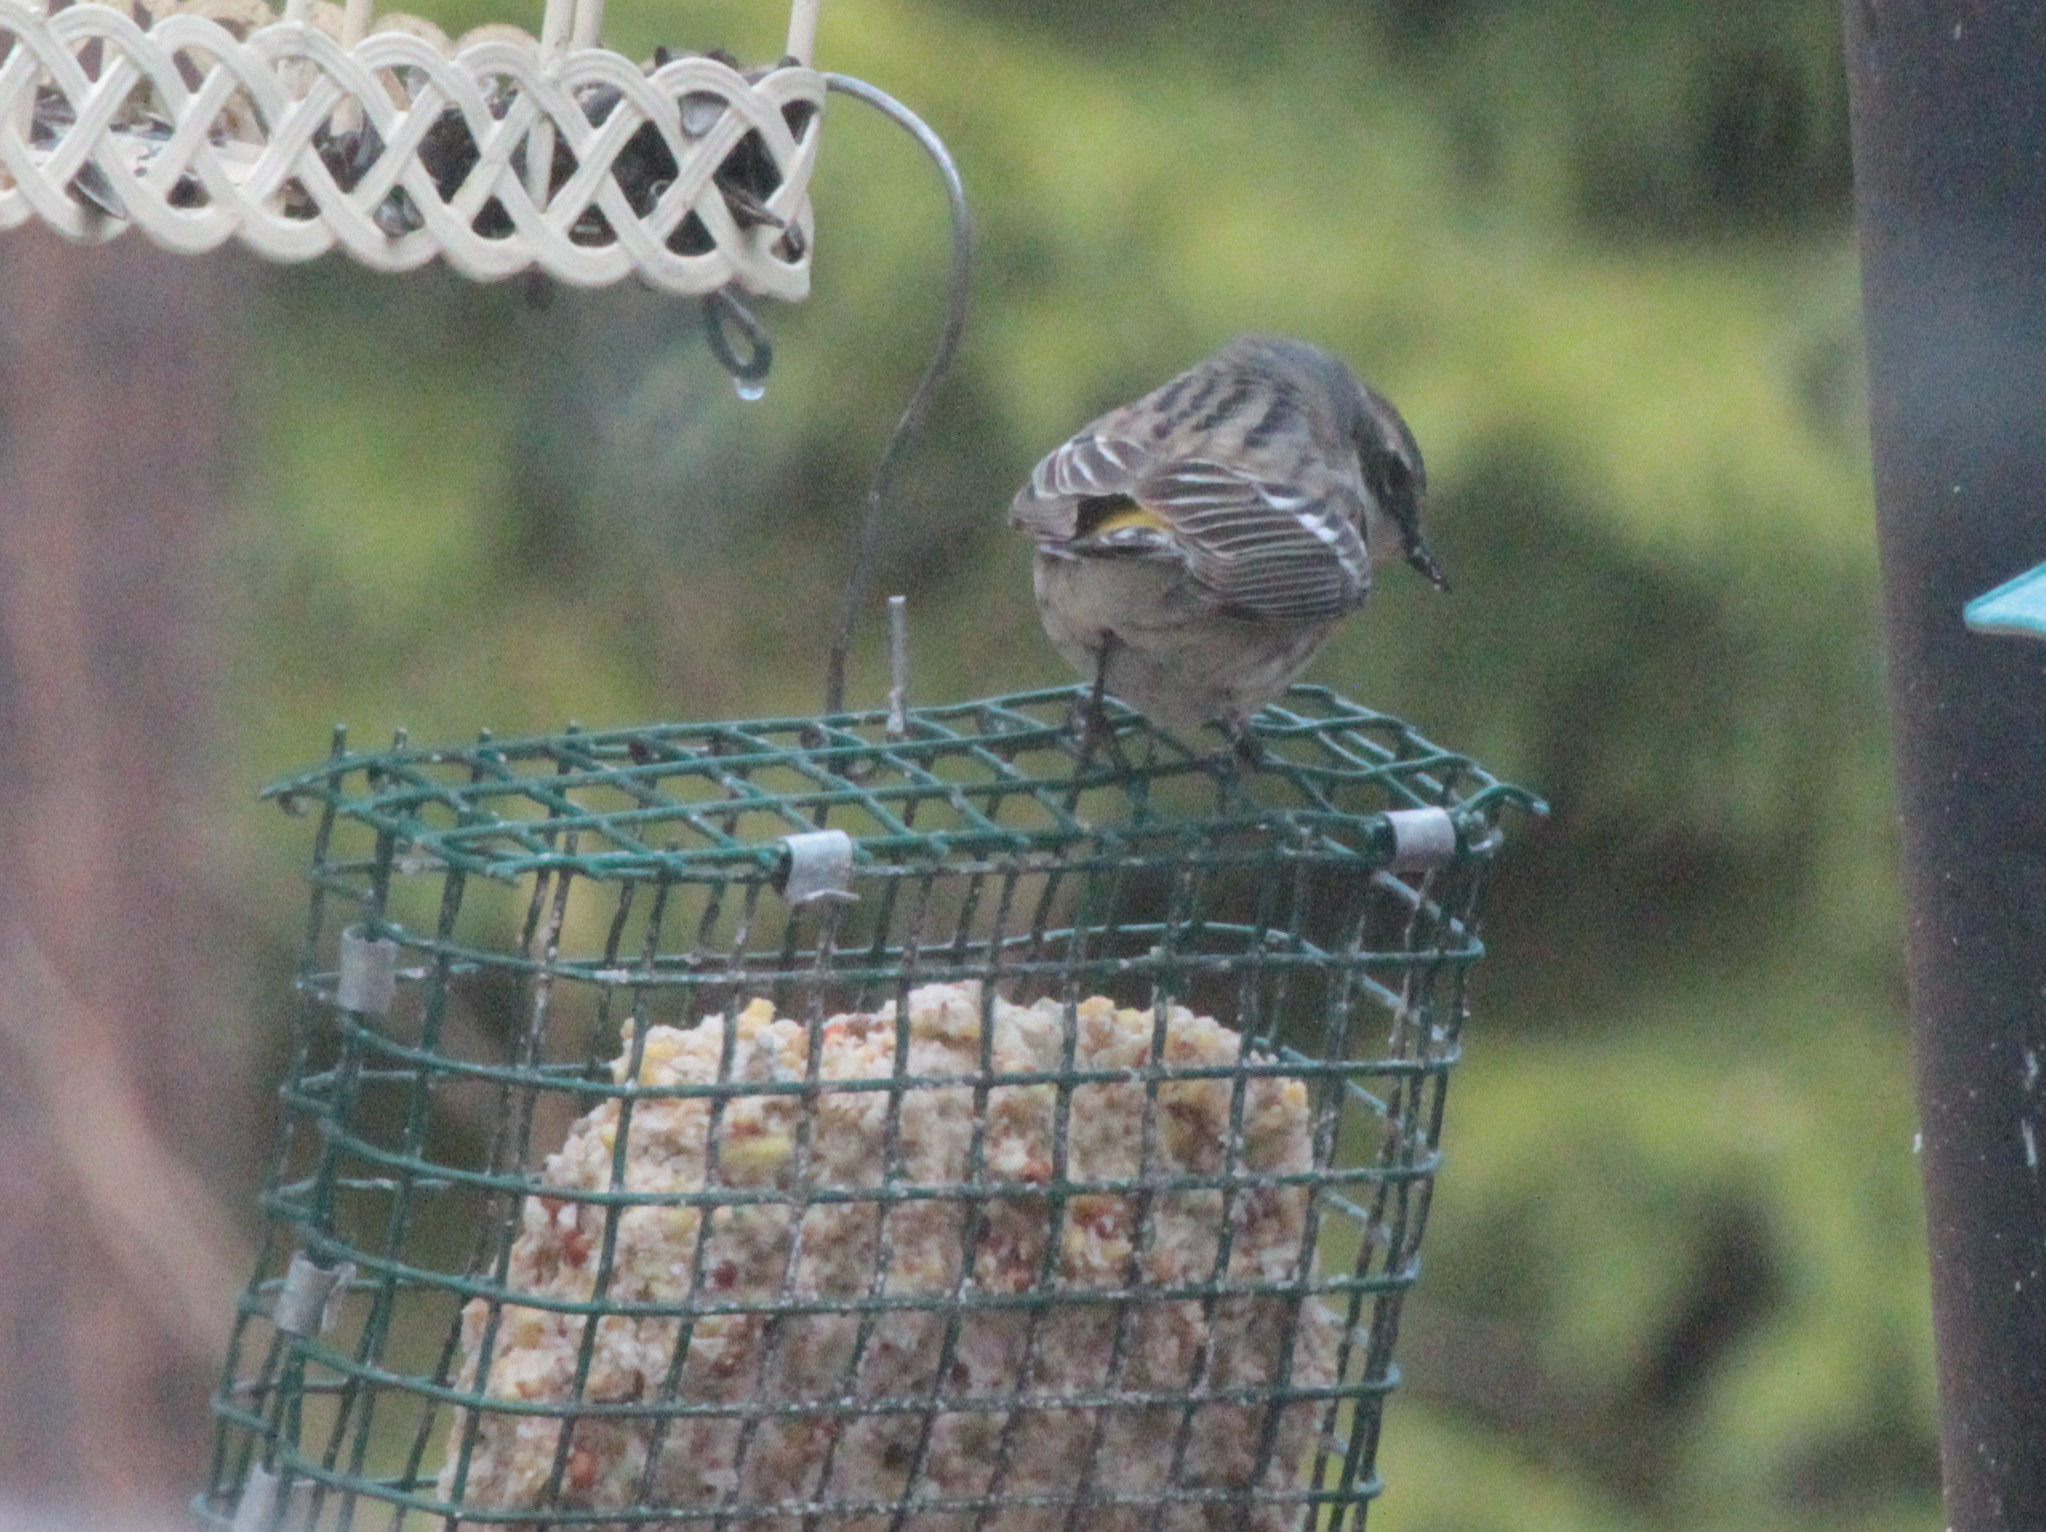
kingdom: Animalia
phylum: Chordata
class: Aves
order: Passeriformes
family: Parulidae
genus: Setophaga
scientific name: Setophaga coronata
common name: Myrtle warbler
